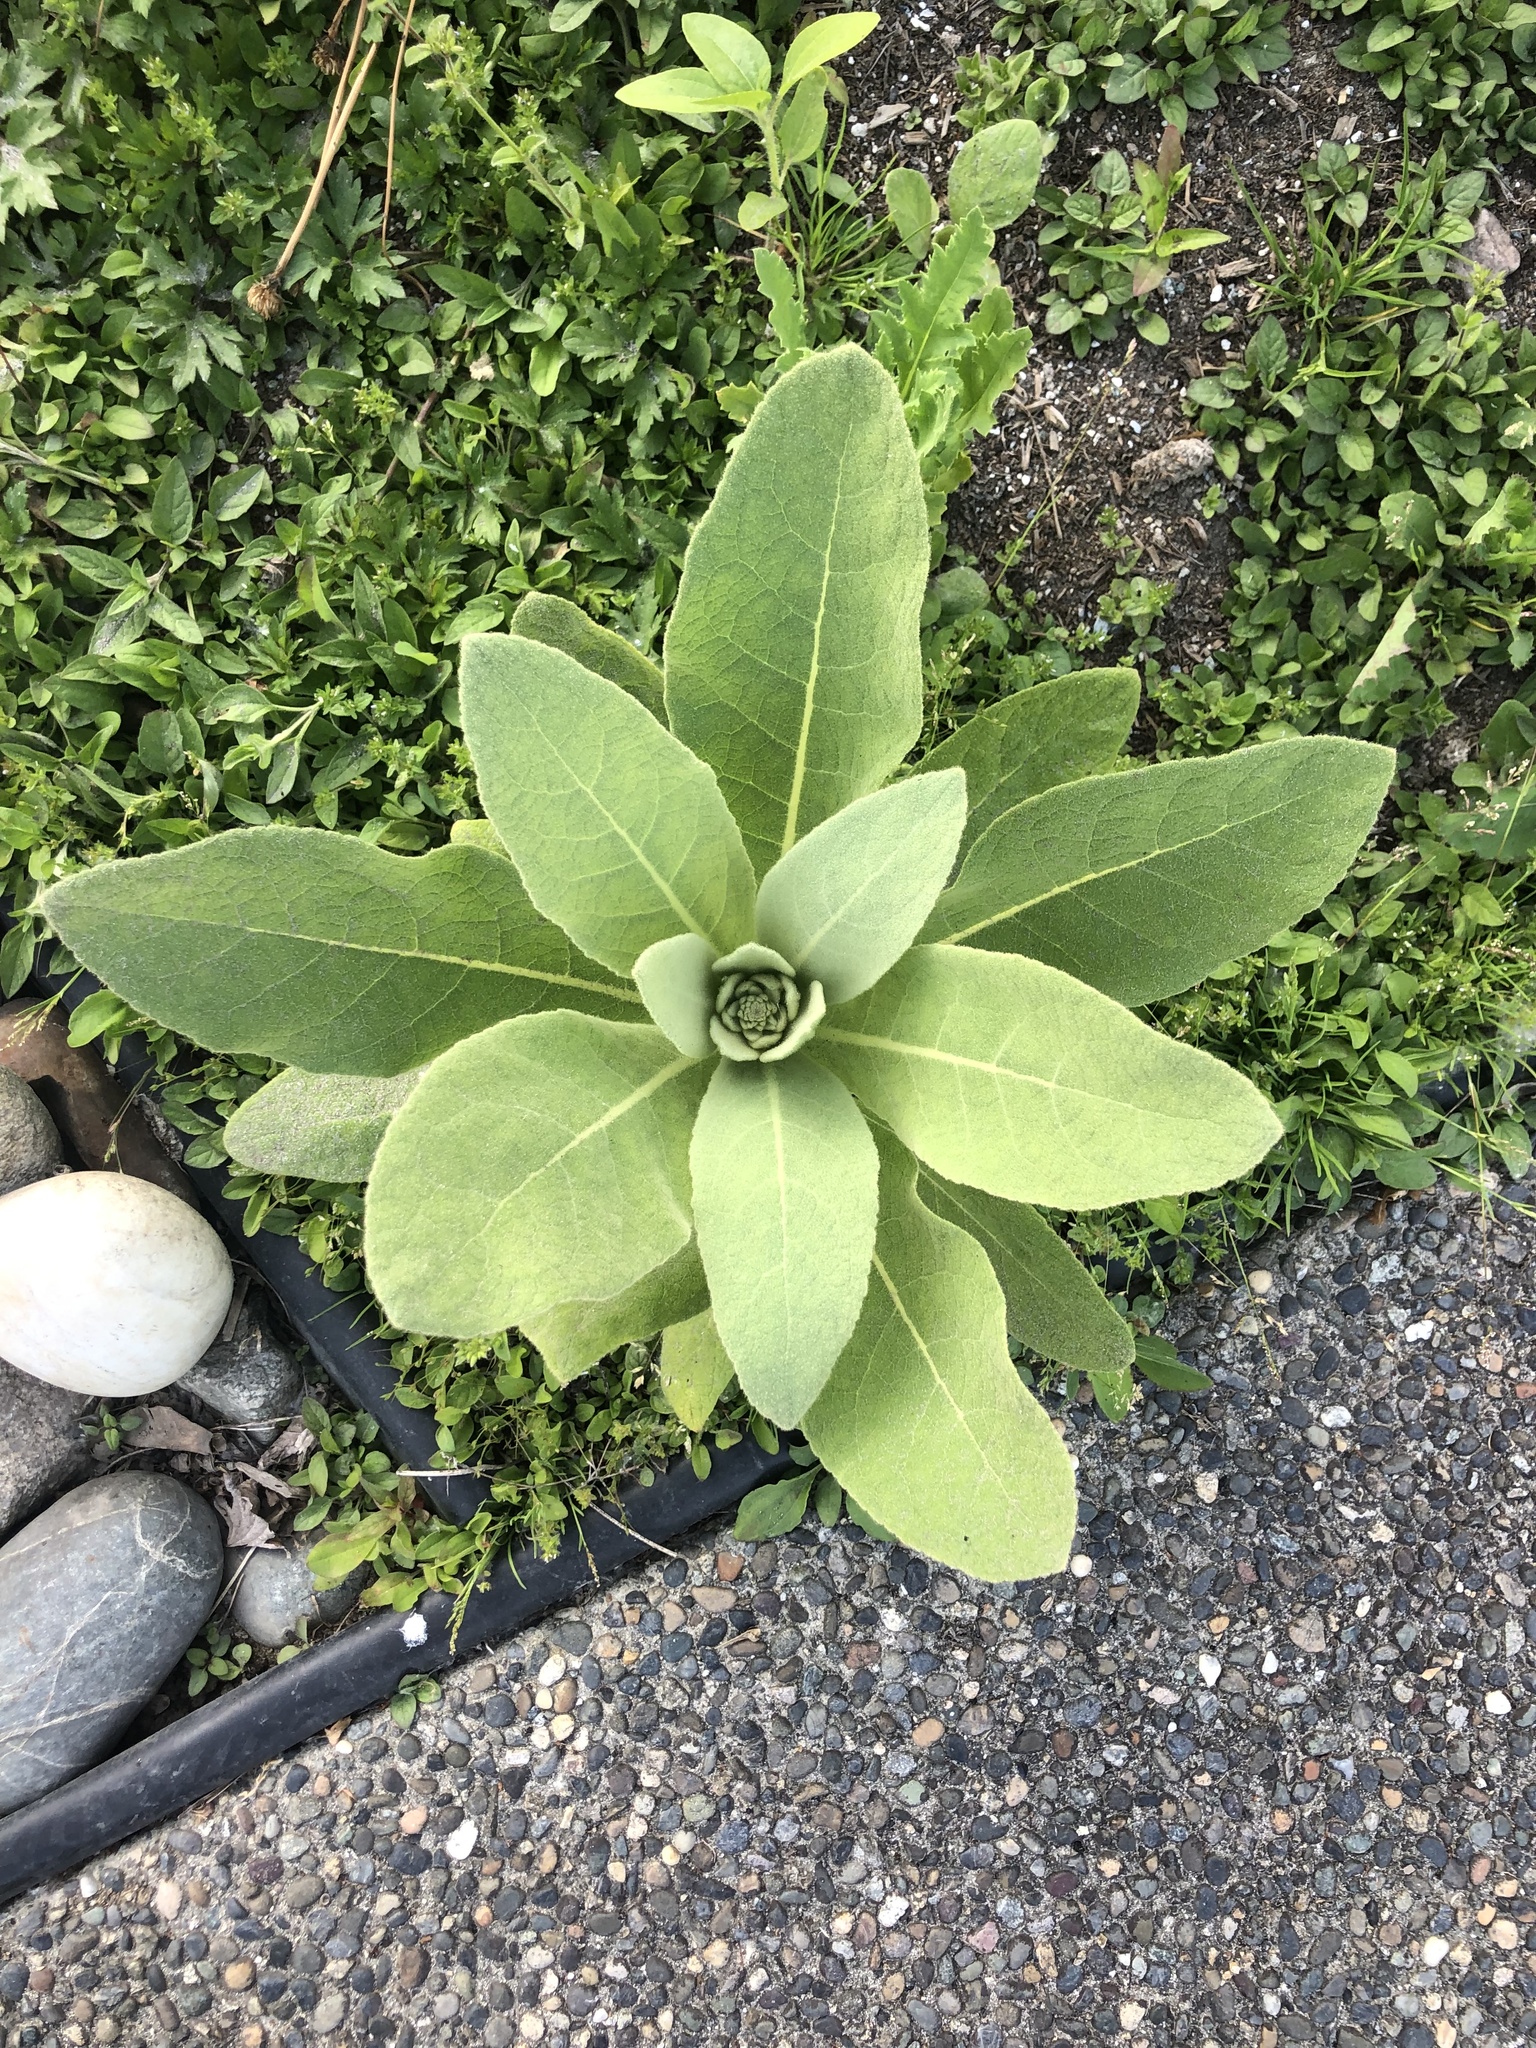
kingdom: Plantae
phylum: Tracheophyta
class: Magnoliopsida
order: Lamiales
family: Scrophulariaceae
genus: Verbascum
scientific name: Verbascum thapsus
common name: Common mullein
